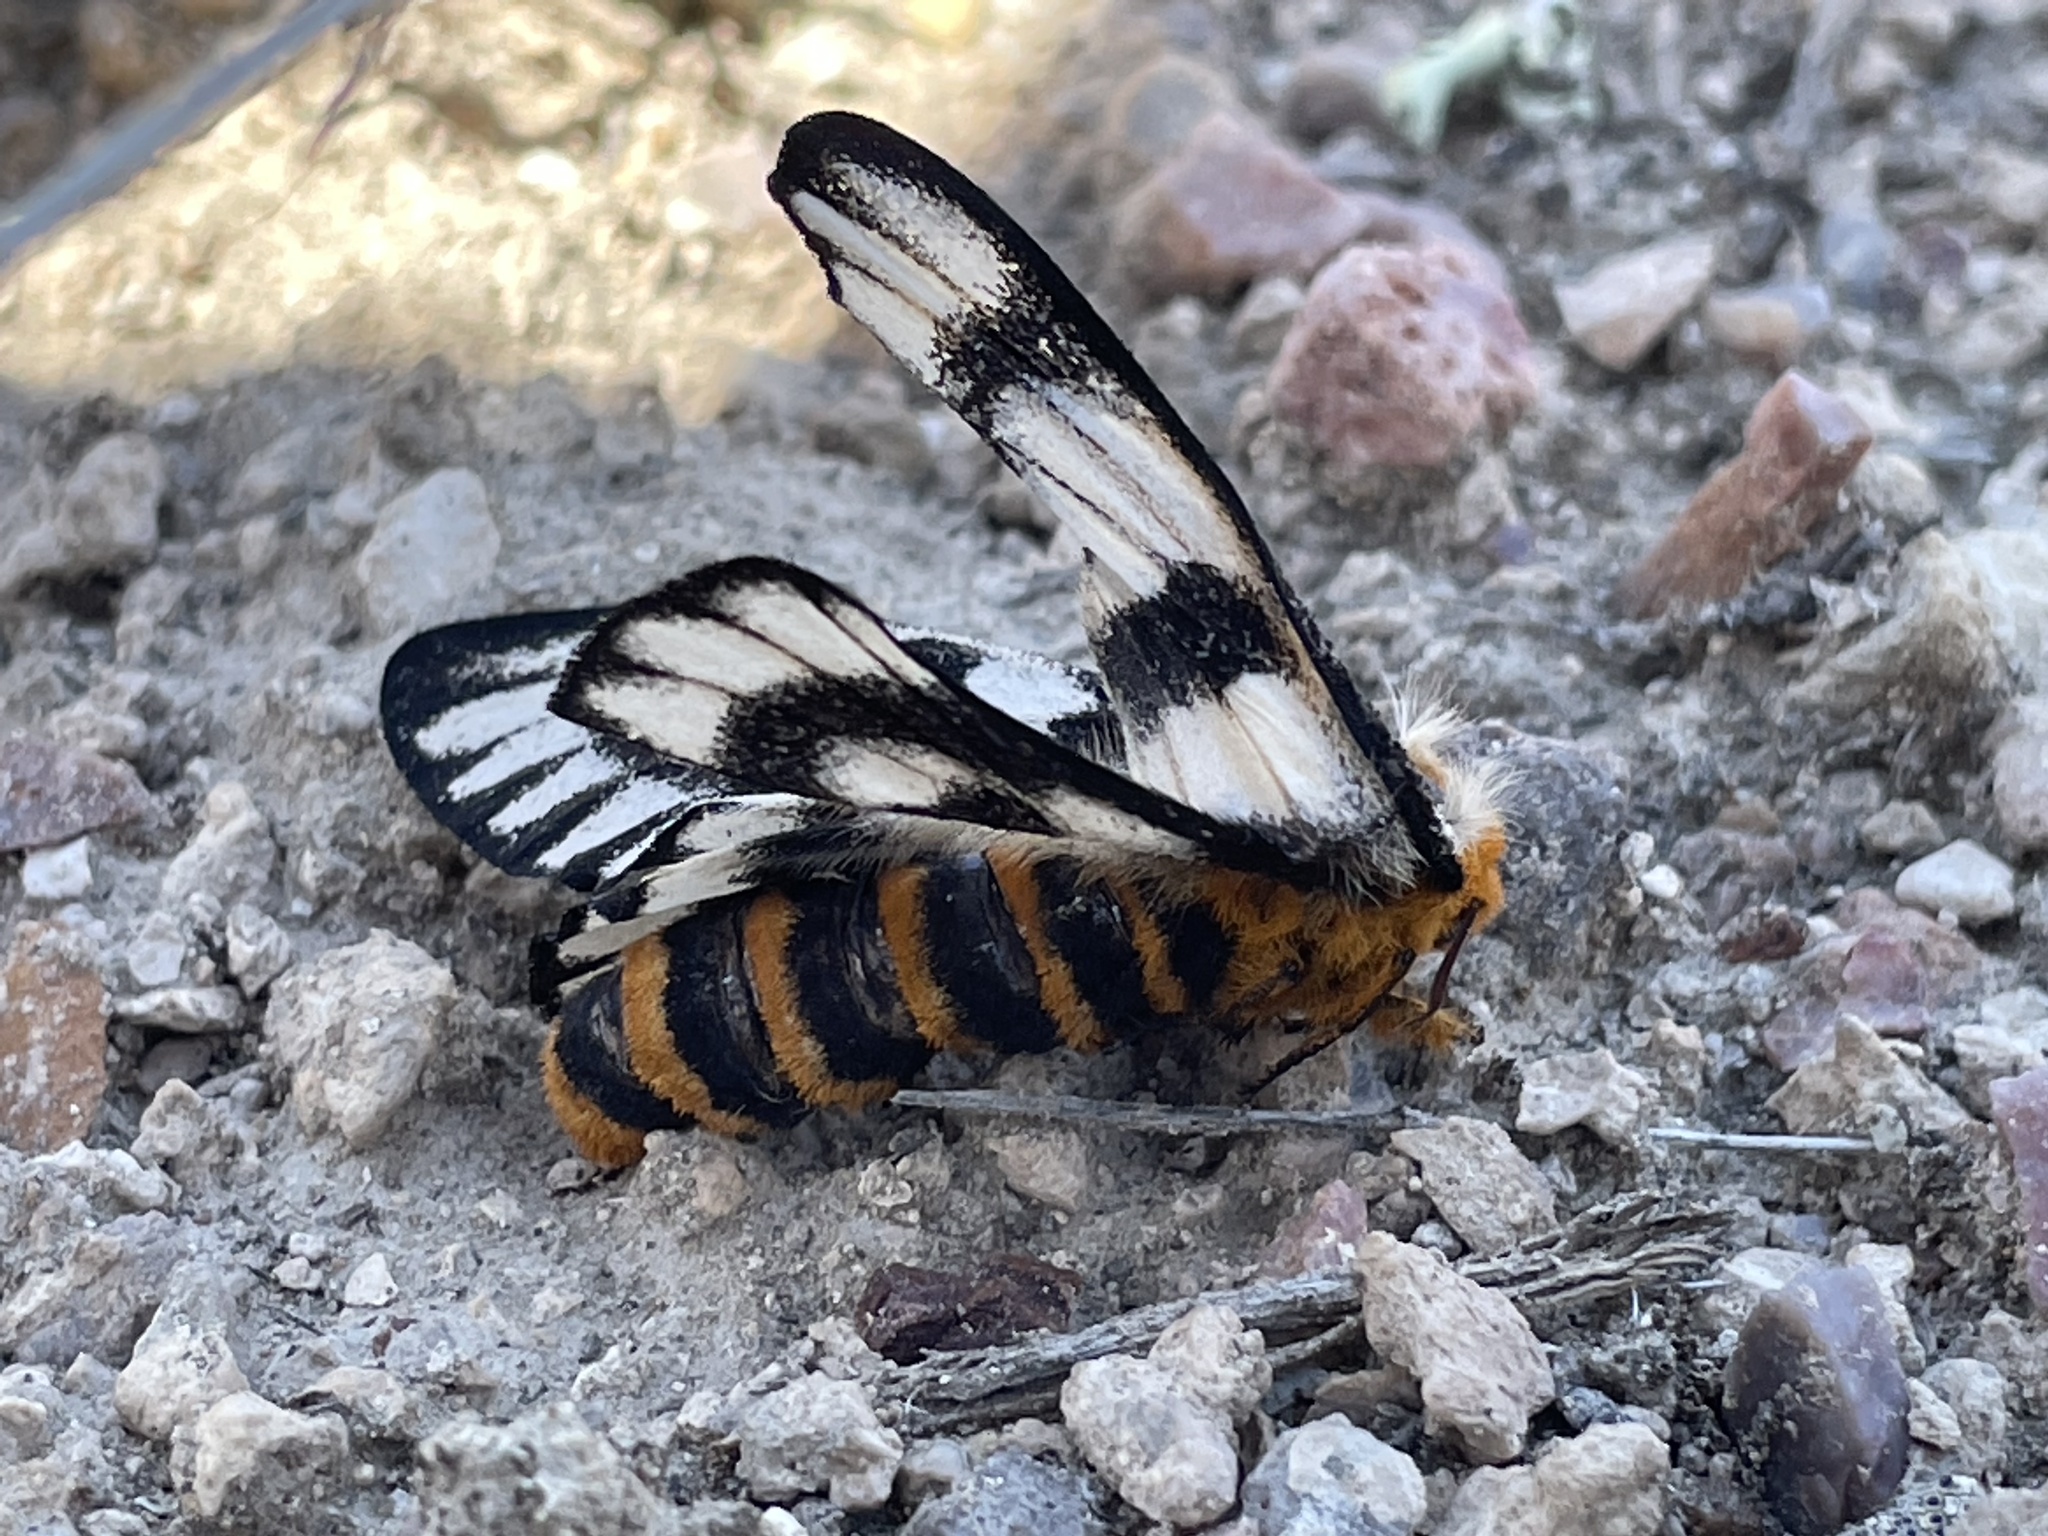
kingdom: Animalia
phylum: Arthropoda
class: Insecta
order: Lepidoptera
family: Saturniidae
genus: Hemileuca
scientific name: Hemileuca hera
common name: Hera sheepmoth
